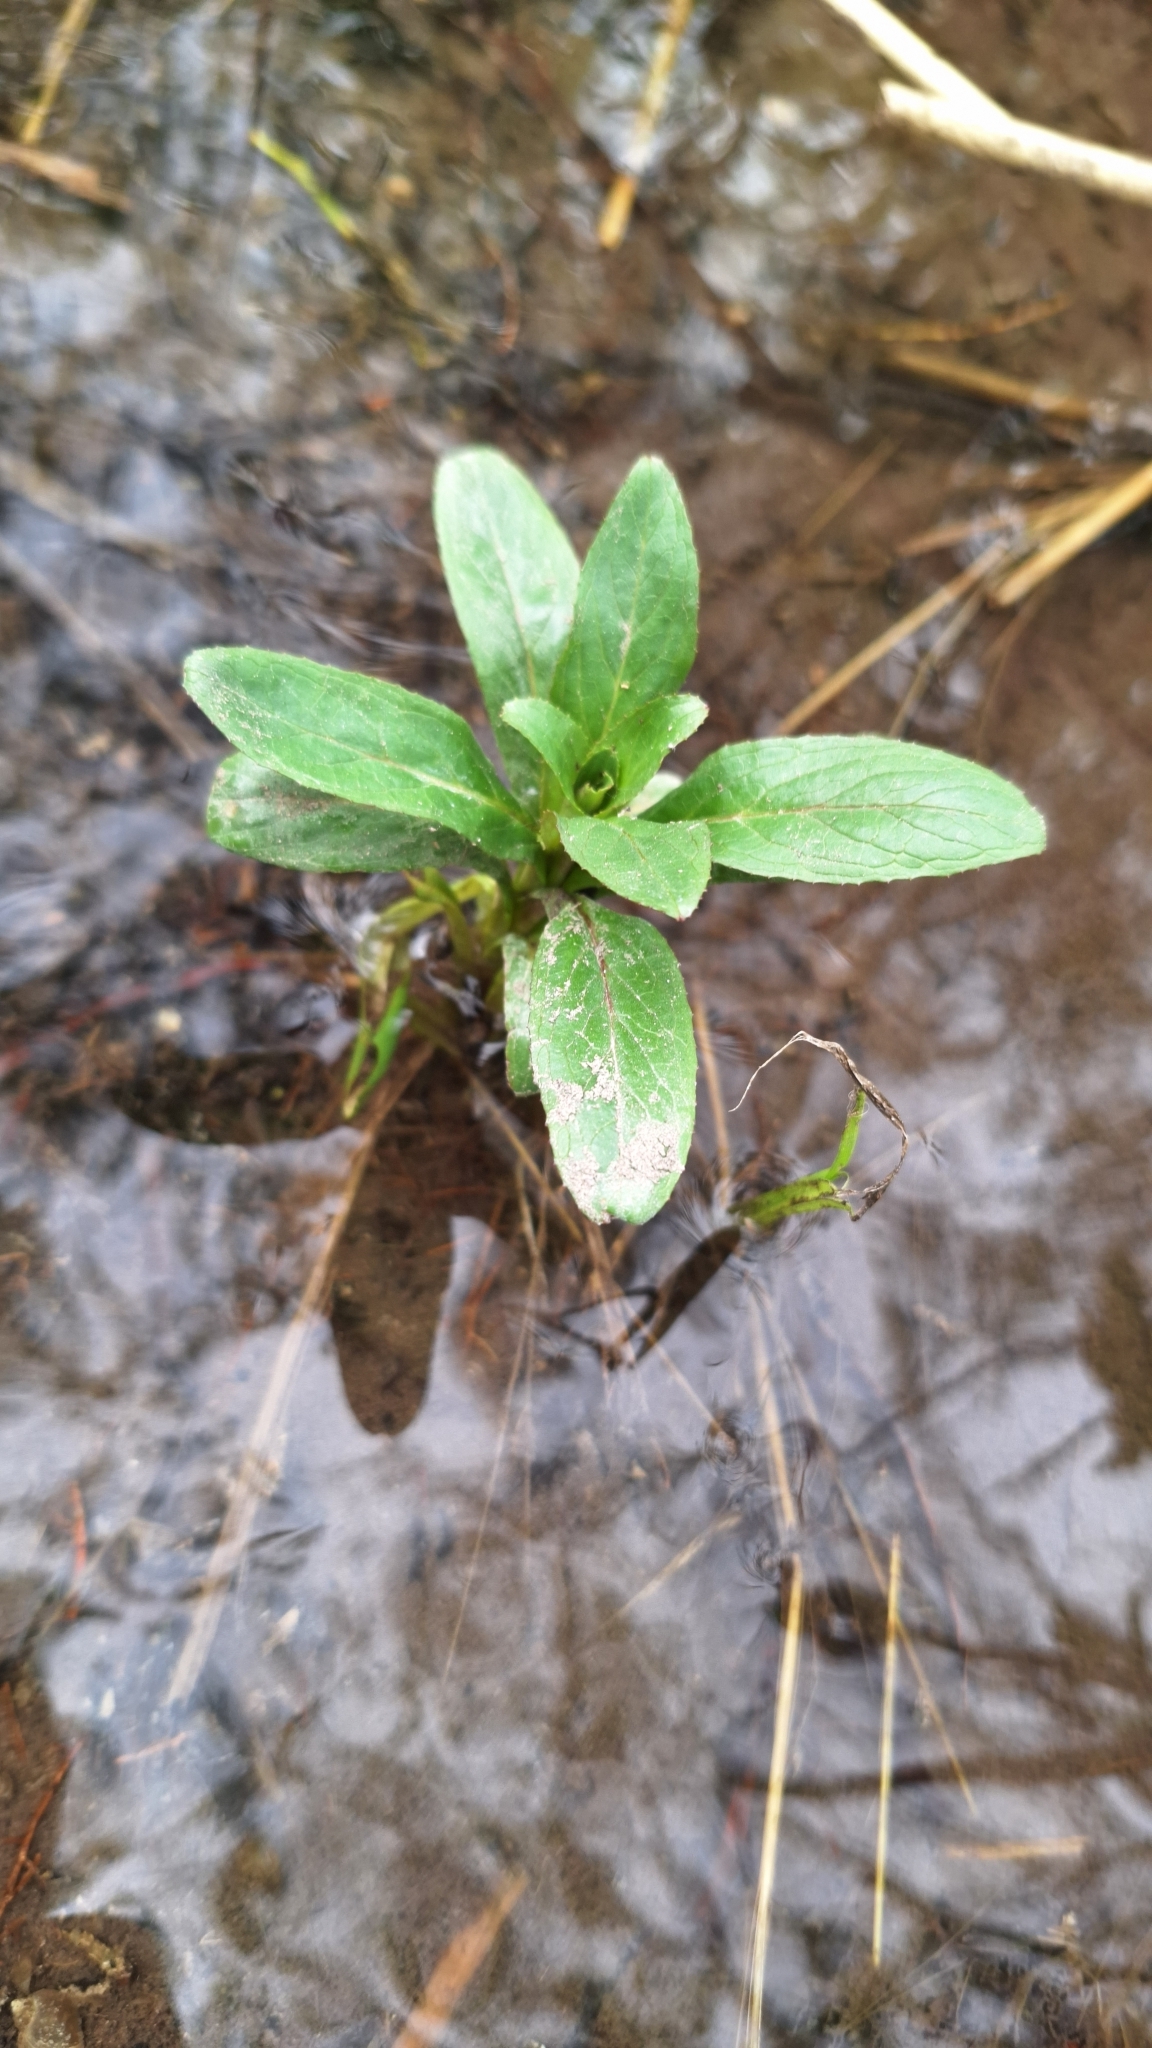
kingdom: Plantae
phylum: Tracheophyta
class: Magnoliopsida
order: Lamiales
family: Plantaginaceae
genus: Veronica
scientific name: Veronica beccabunga
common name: Brooklime
